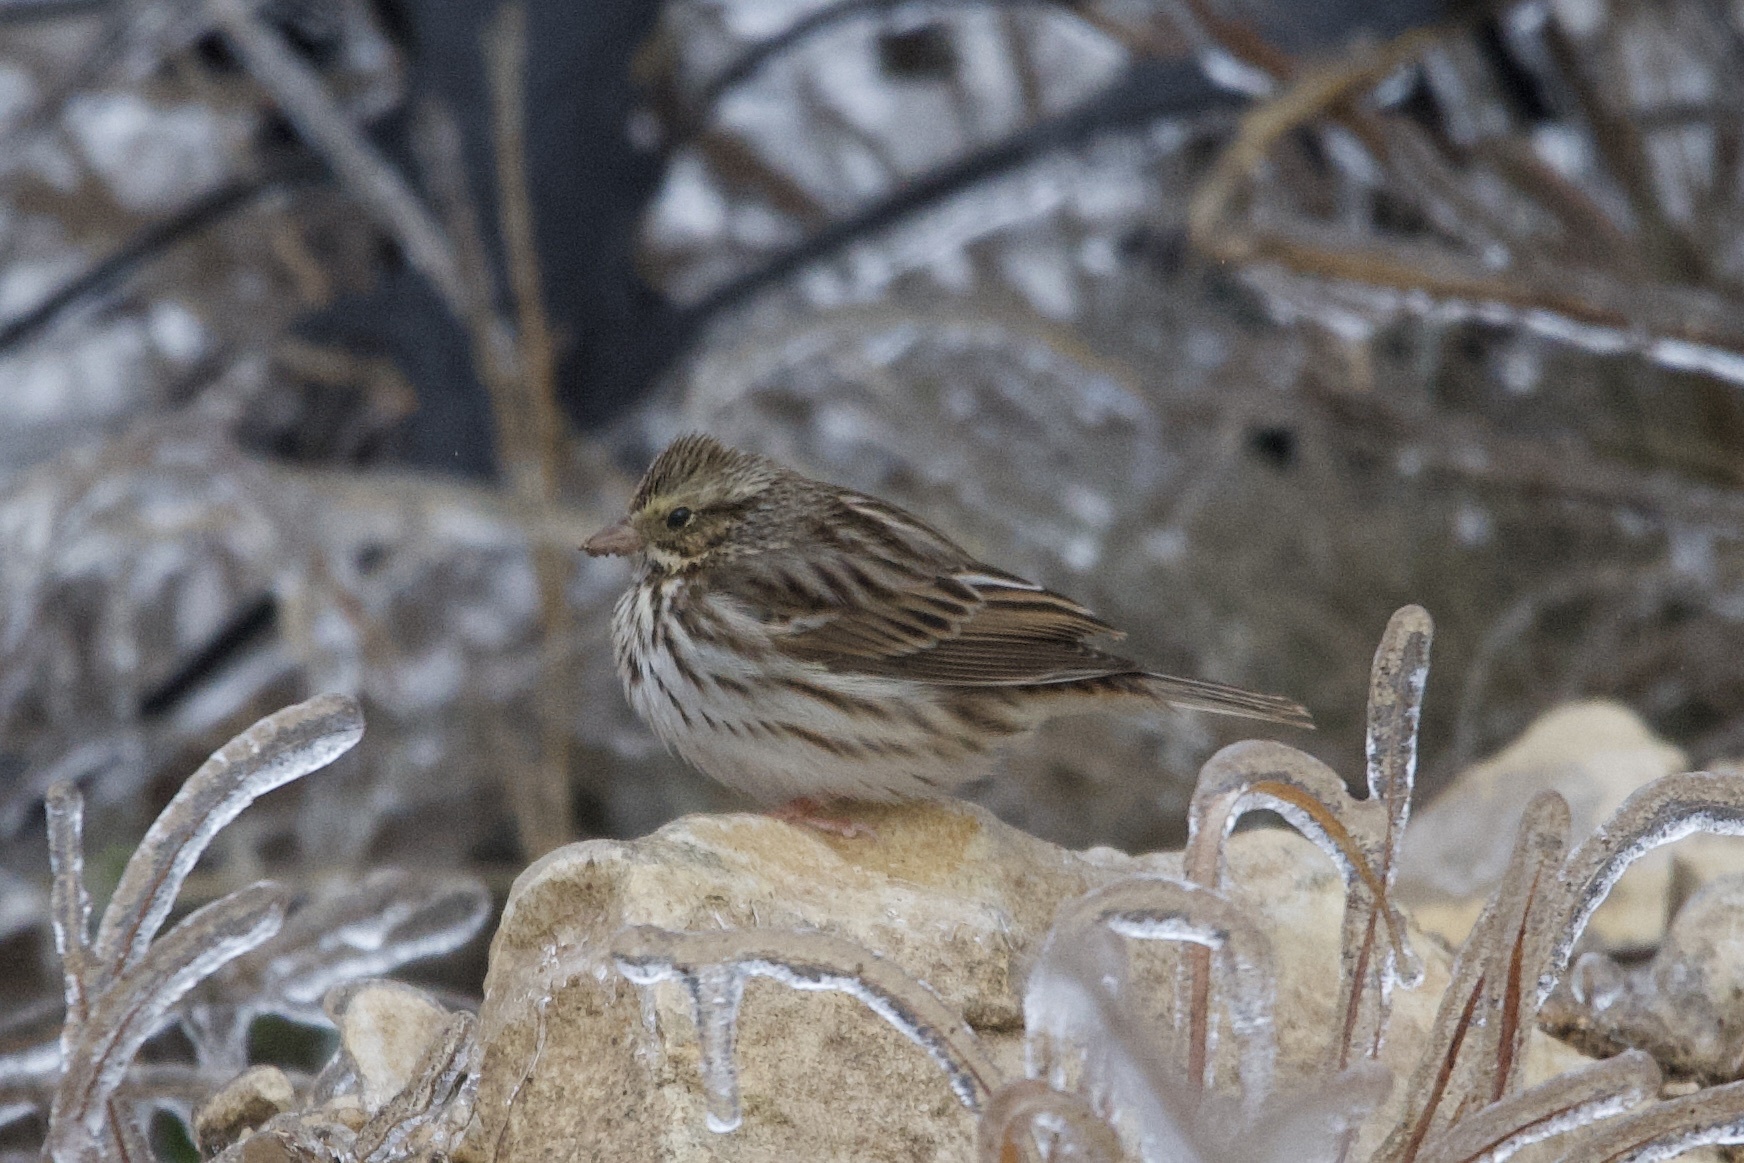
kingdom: Animalia
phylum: Chordata
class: Aves
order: Passeriformes
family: Passerellidae
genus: Passerculus
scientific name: Passerculus sandwichensis
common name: Savannah sparrow
